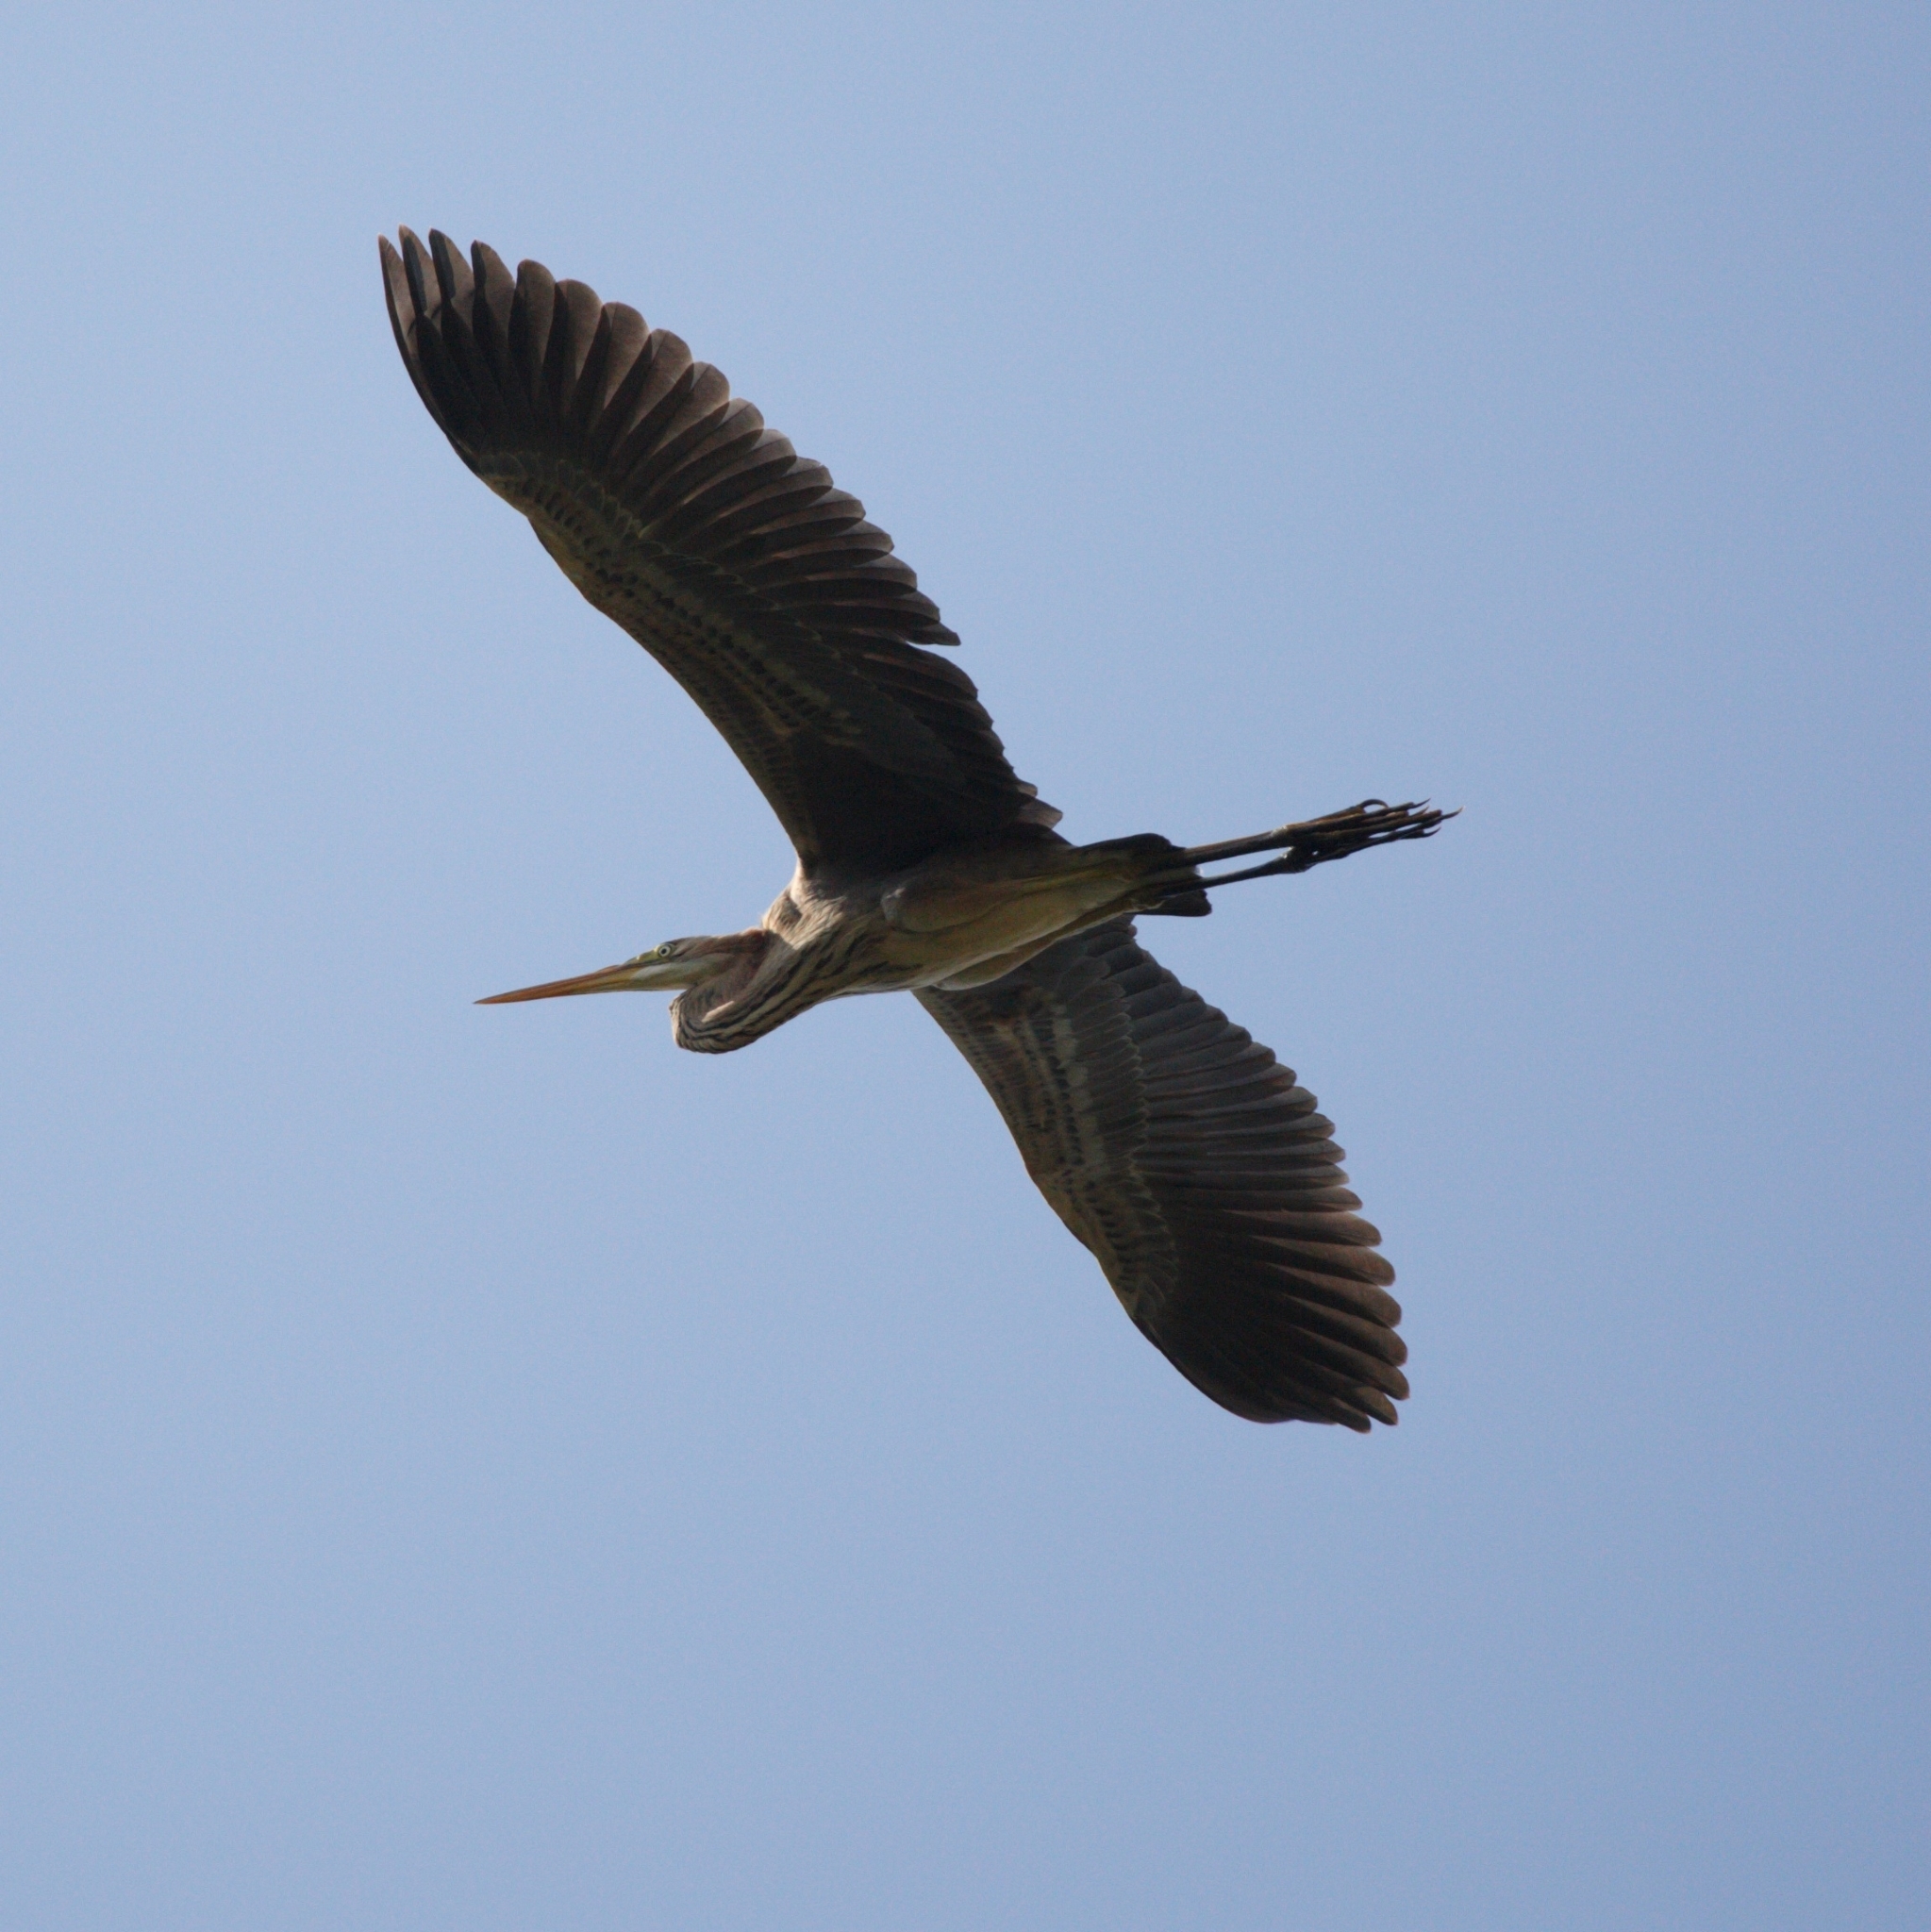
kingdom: Animalia
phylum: Chordata
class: Aves
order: Pelecaniformes
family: Ardeidae
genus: Ardea
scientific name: Ardea purpurea
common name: Purple heron
